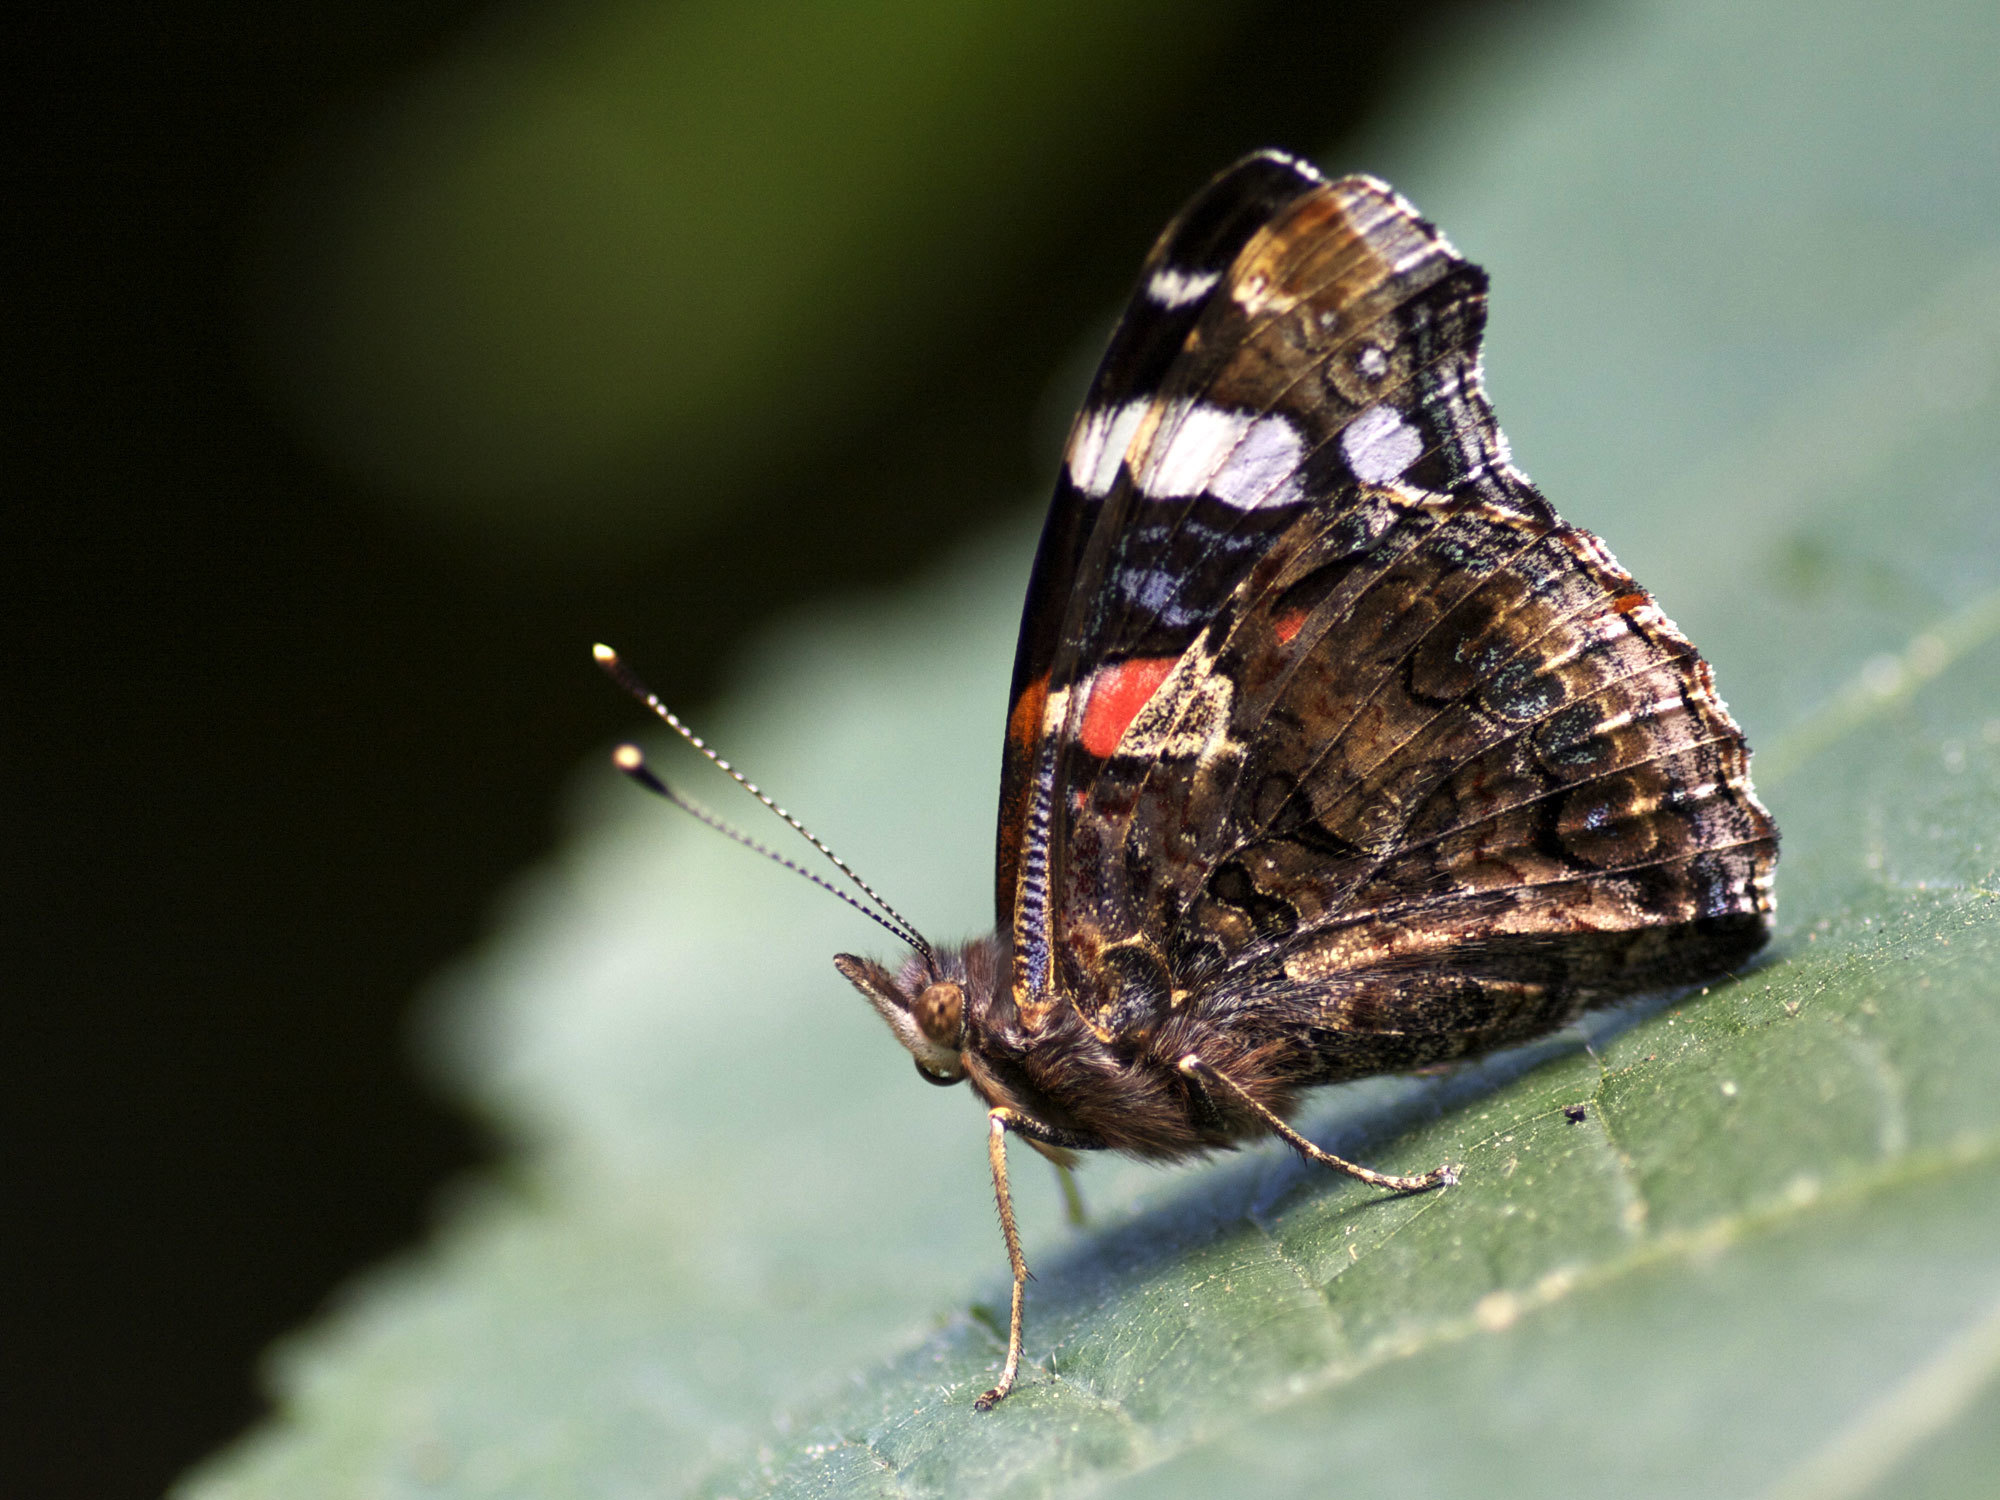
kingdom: Animalia
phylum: Arthropoda
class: Insecta
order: Lepidoptera
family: Nymphalidae
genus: Vanessa
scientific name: Vanessa atalanta
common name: Red admiral
